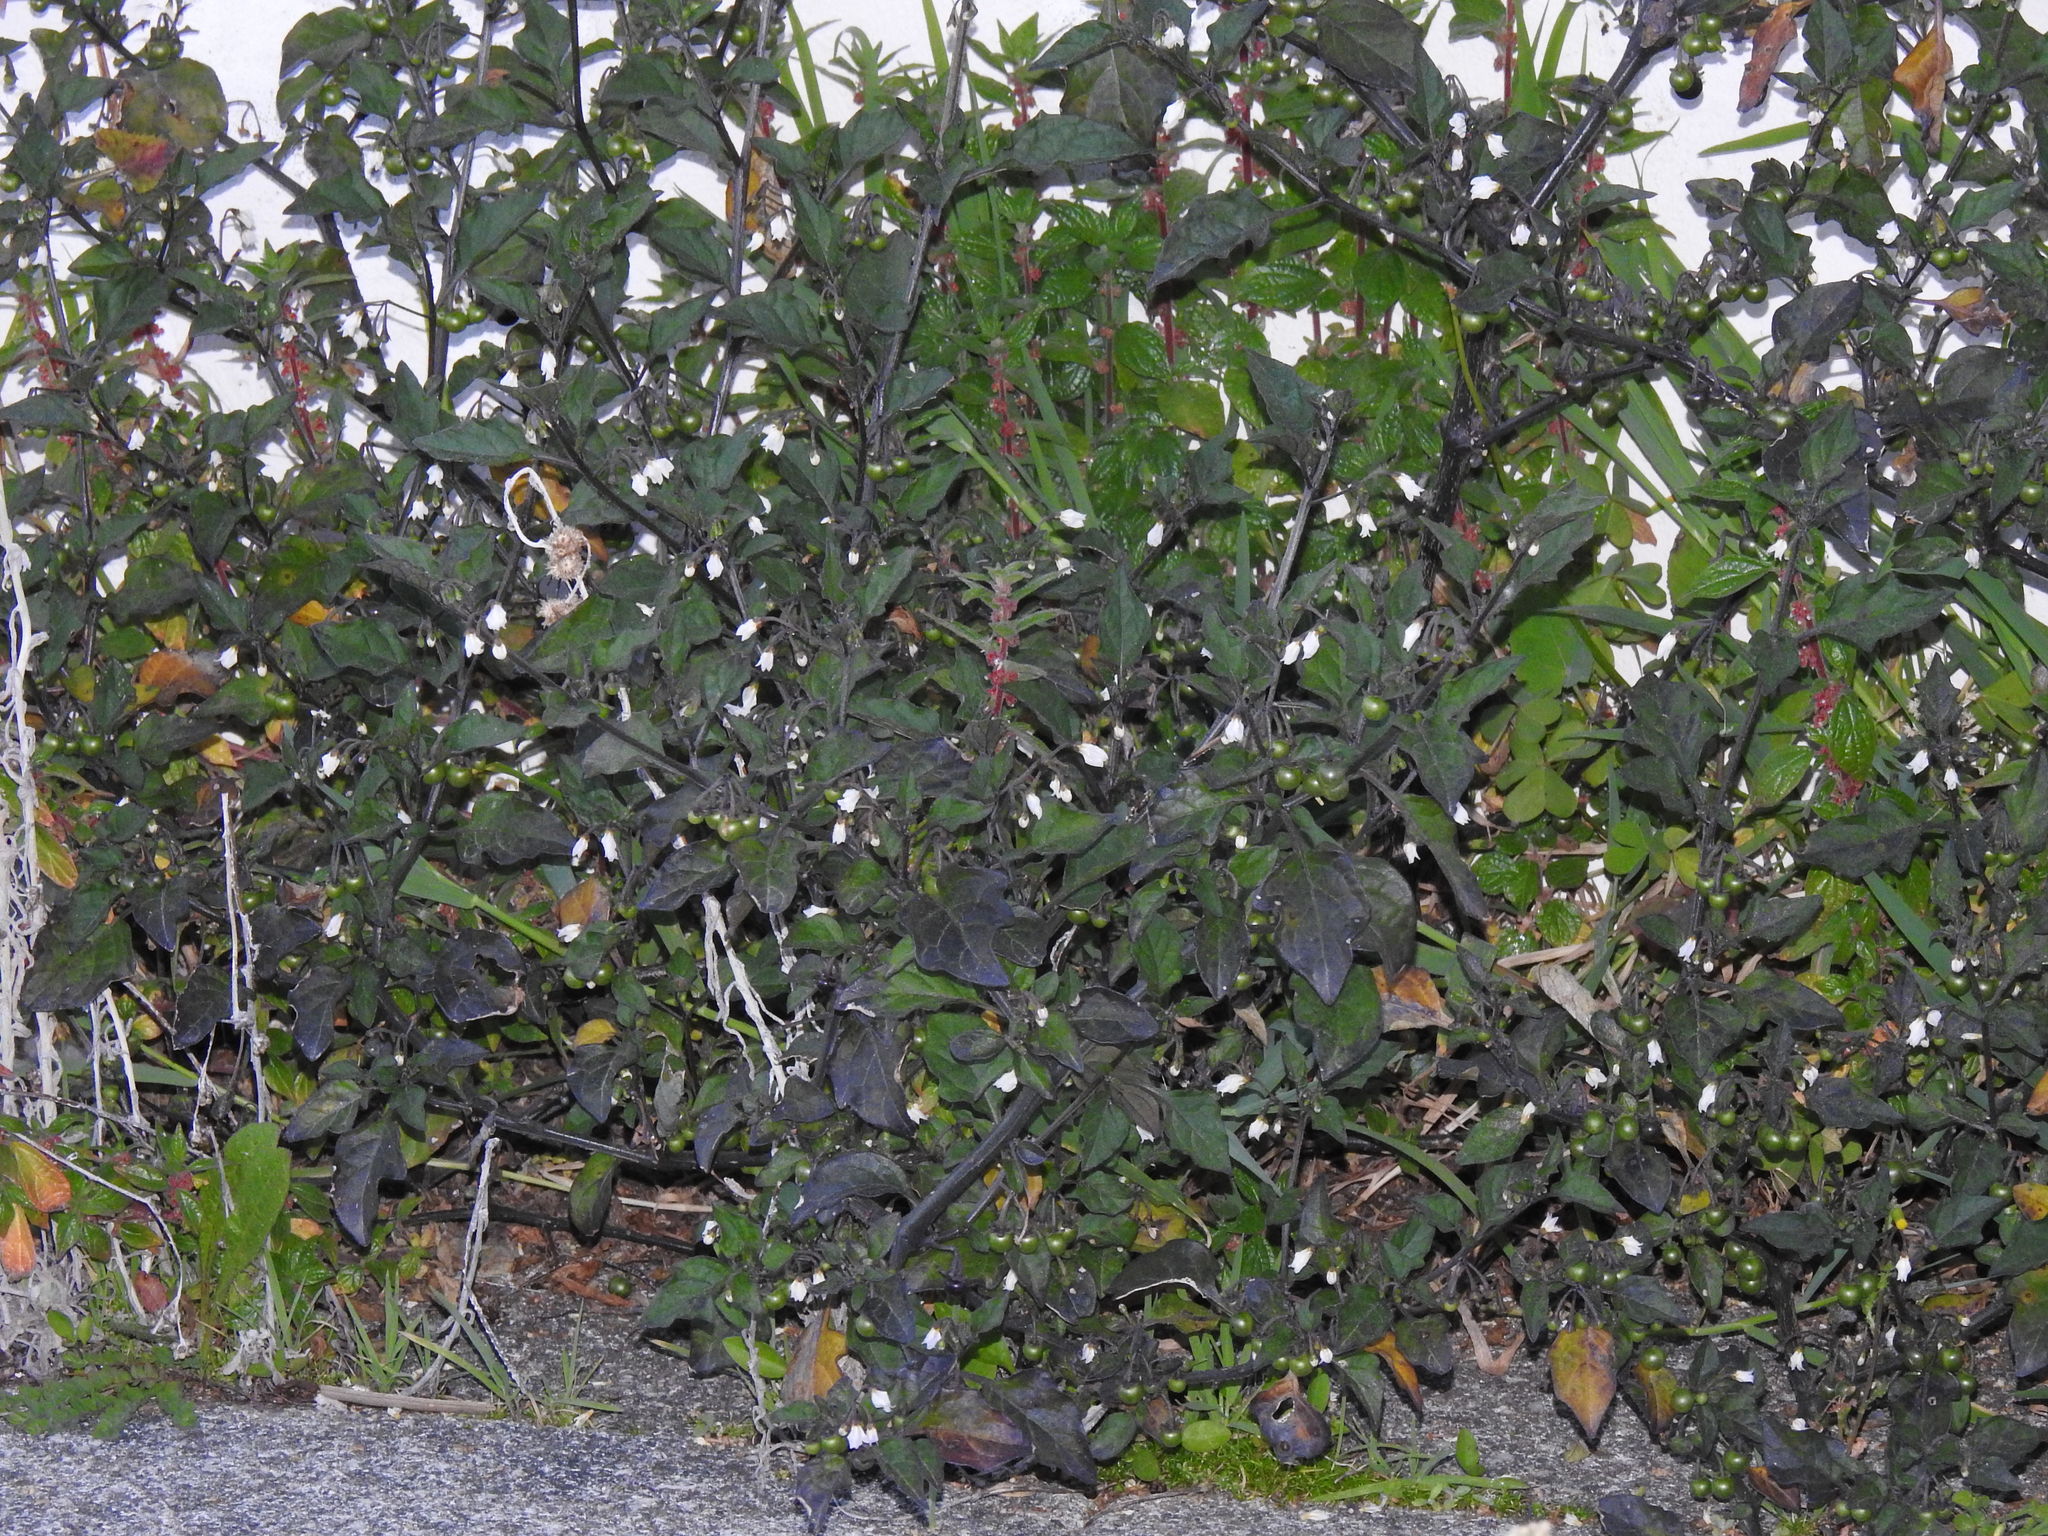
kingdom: Plantae
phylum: Tracheophyta
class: Magnoliopsida
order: Solanales
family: Solanaceae
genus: Solanum
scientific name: Solanum nigrum
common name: Black nightshade
